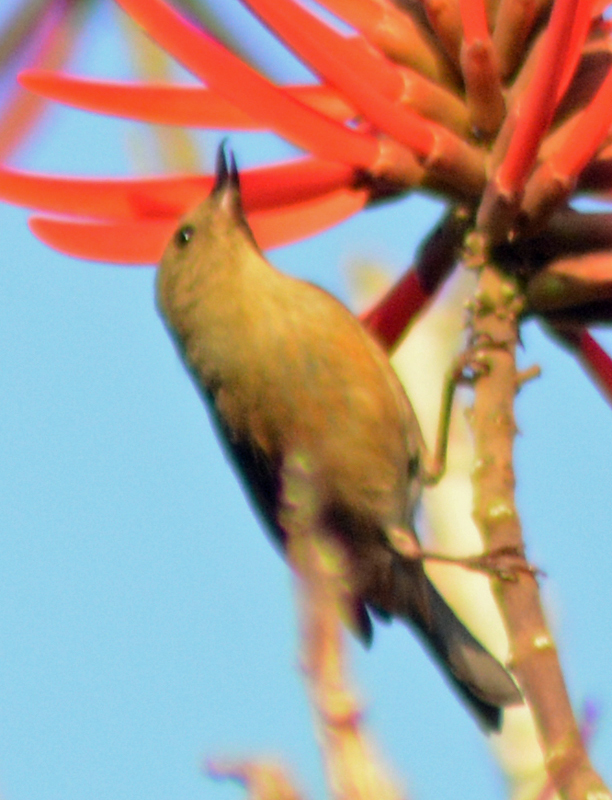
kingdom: Animalia
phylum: Chordata
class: Aves
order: Passeriformes
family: Thraupidae
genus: Diglossa
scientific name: Diglossa baritula
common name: Cinnamon-bellied flowerpiercer
